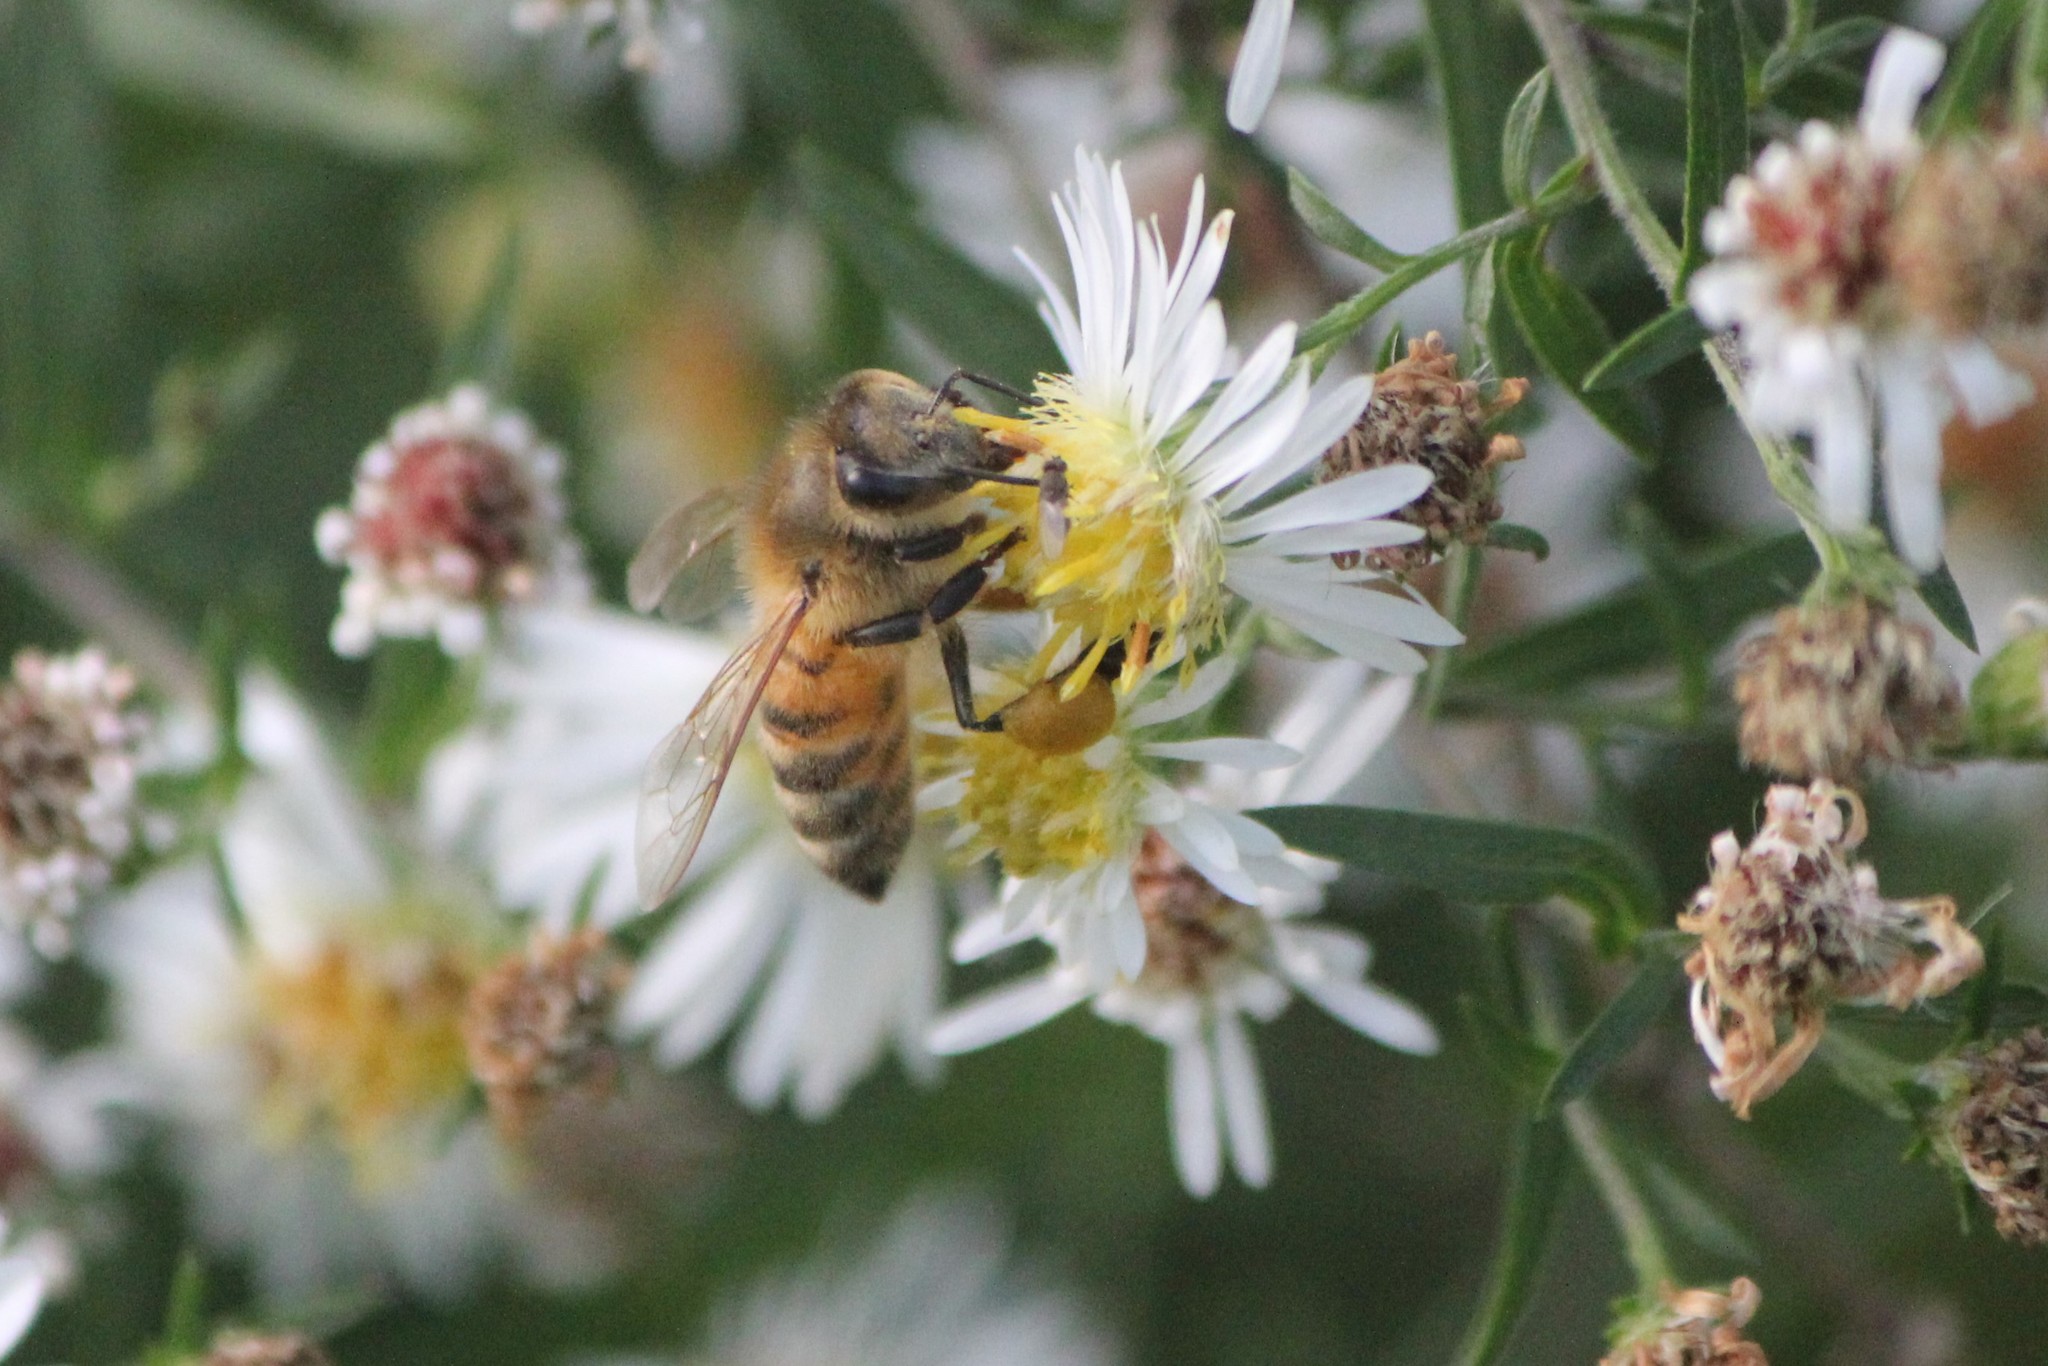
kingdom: Animalia
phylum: Arthropoda
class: Insecta
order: Hymenoptera
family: Apidae
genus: Apis
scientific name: Apis mellifera
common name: Honey bee
